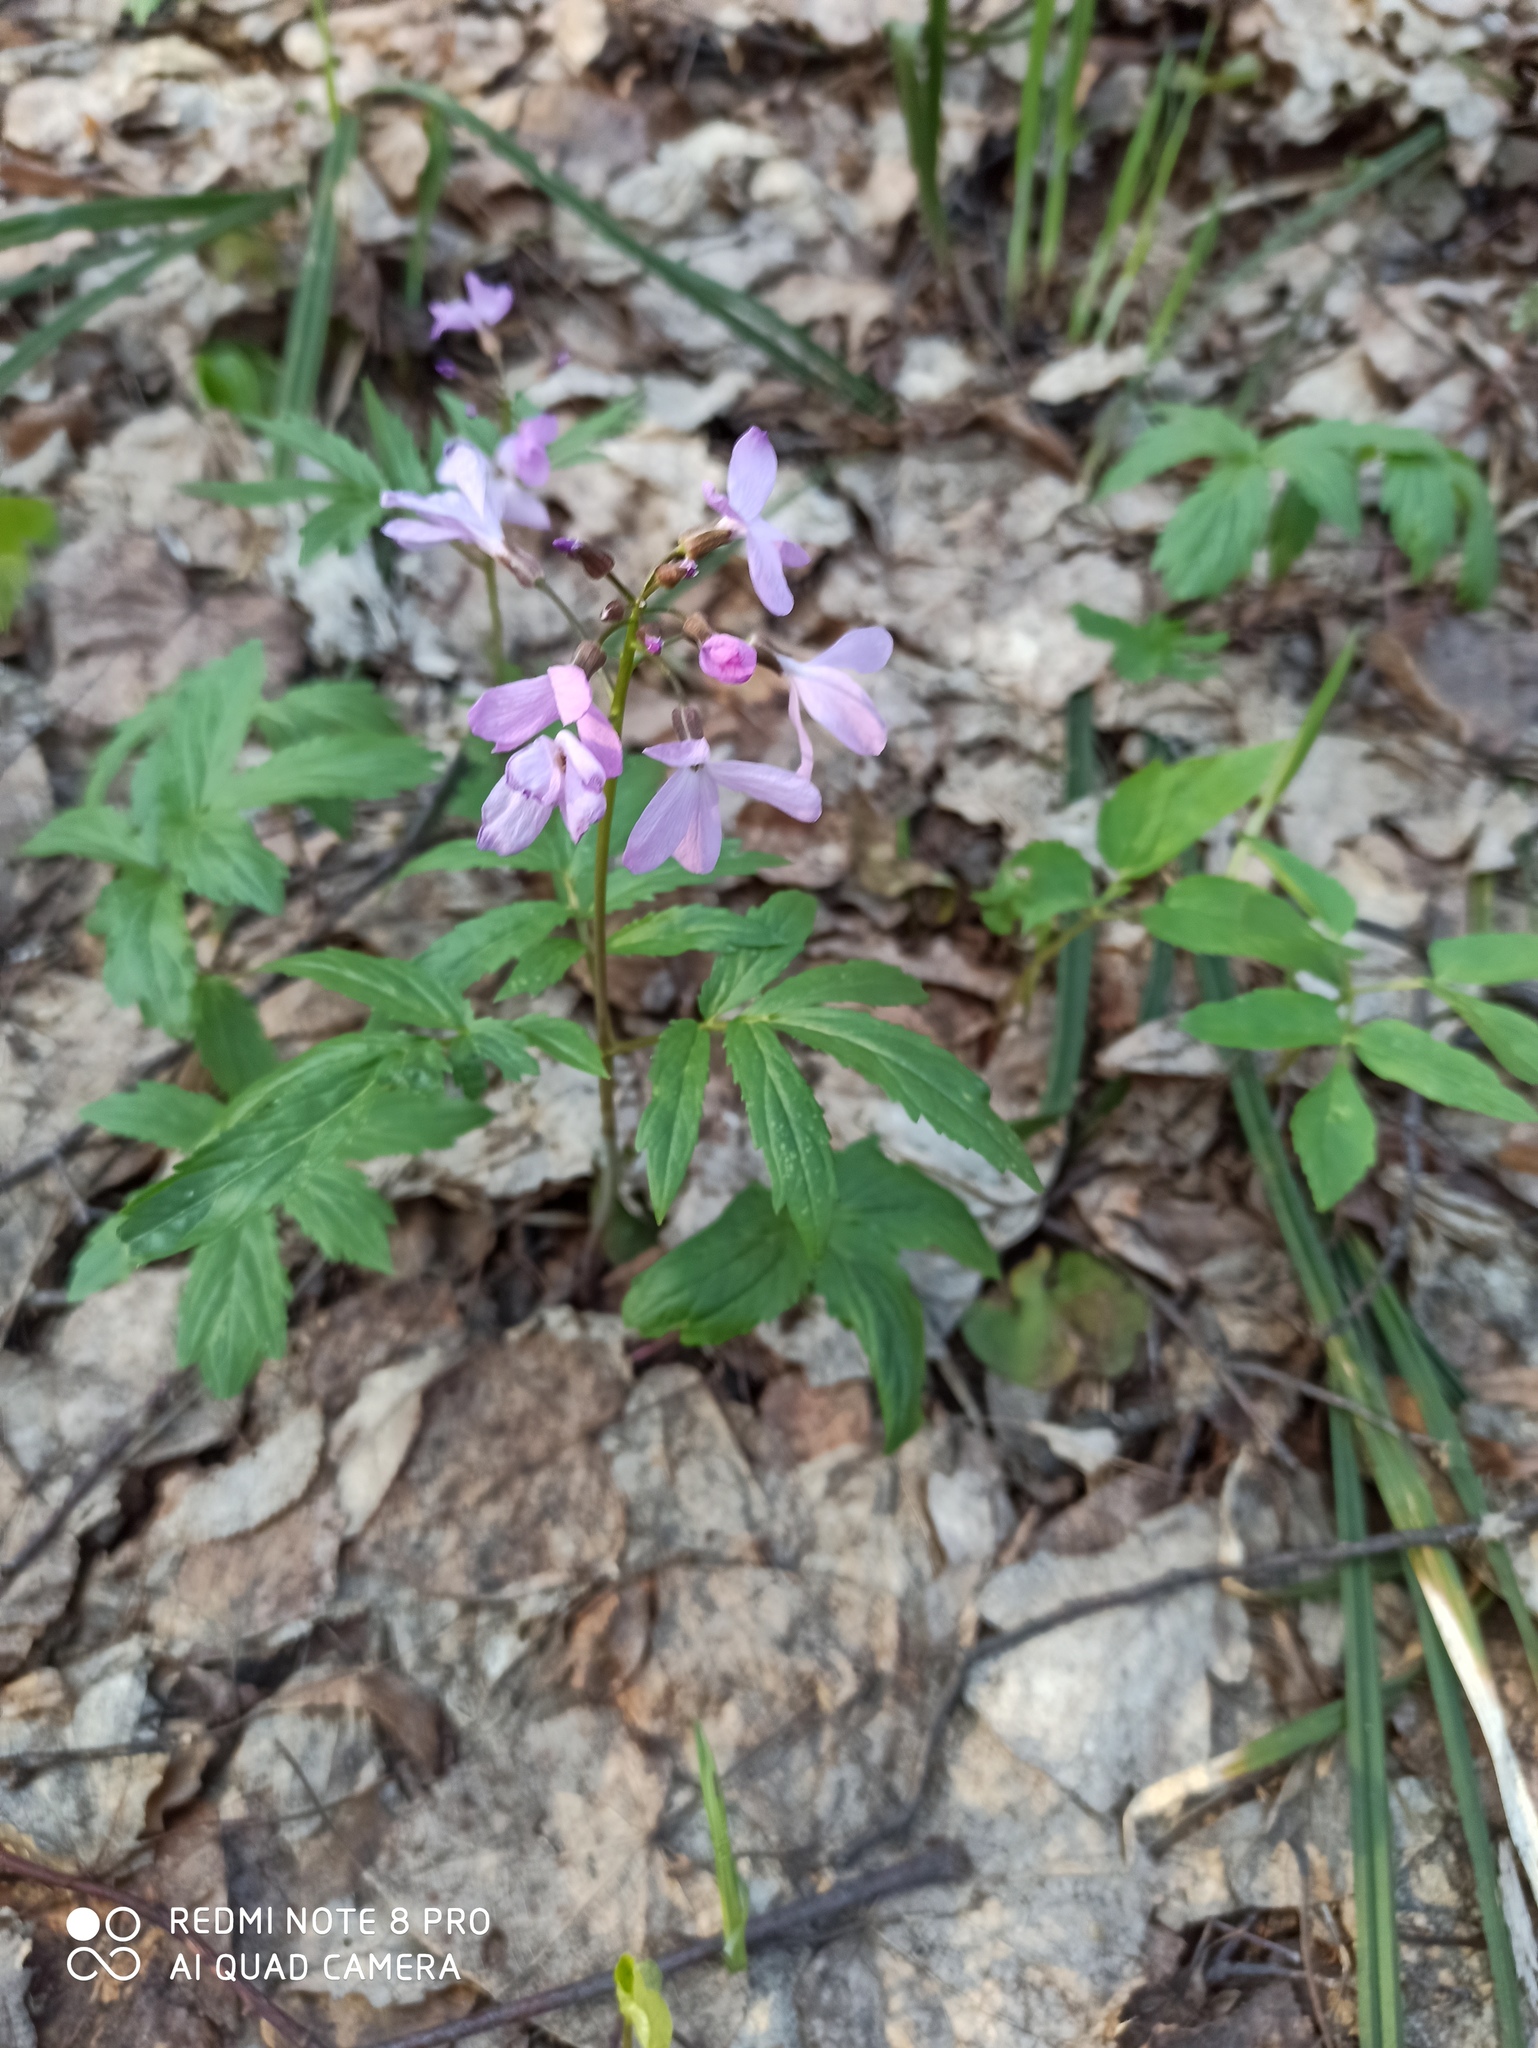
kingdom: Plantae
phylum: Tracheophyta
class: Magnoliopsida
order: Brassicales
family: Brassicaceae
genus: Cardamine
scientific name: Cardamine quinquefolia
